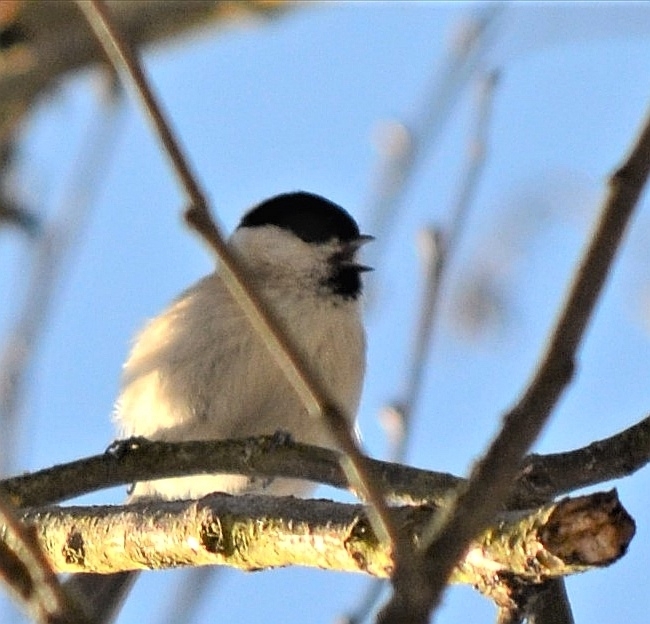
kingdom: Animalia
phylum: Chordata
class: Aves
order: Passeriformes
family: Paridae
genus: Poecile
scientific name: Poecile palustris
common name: Marsh tit
